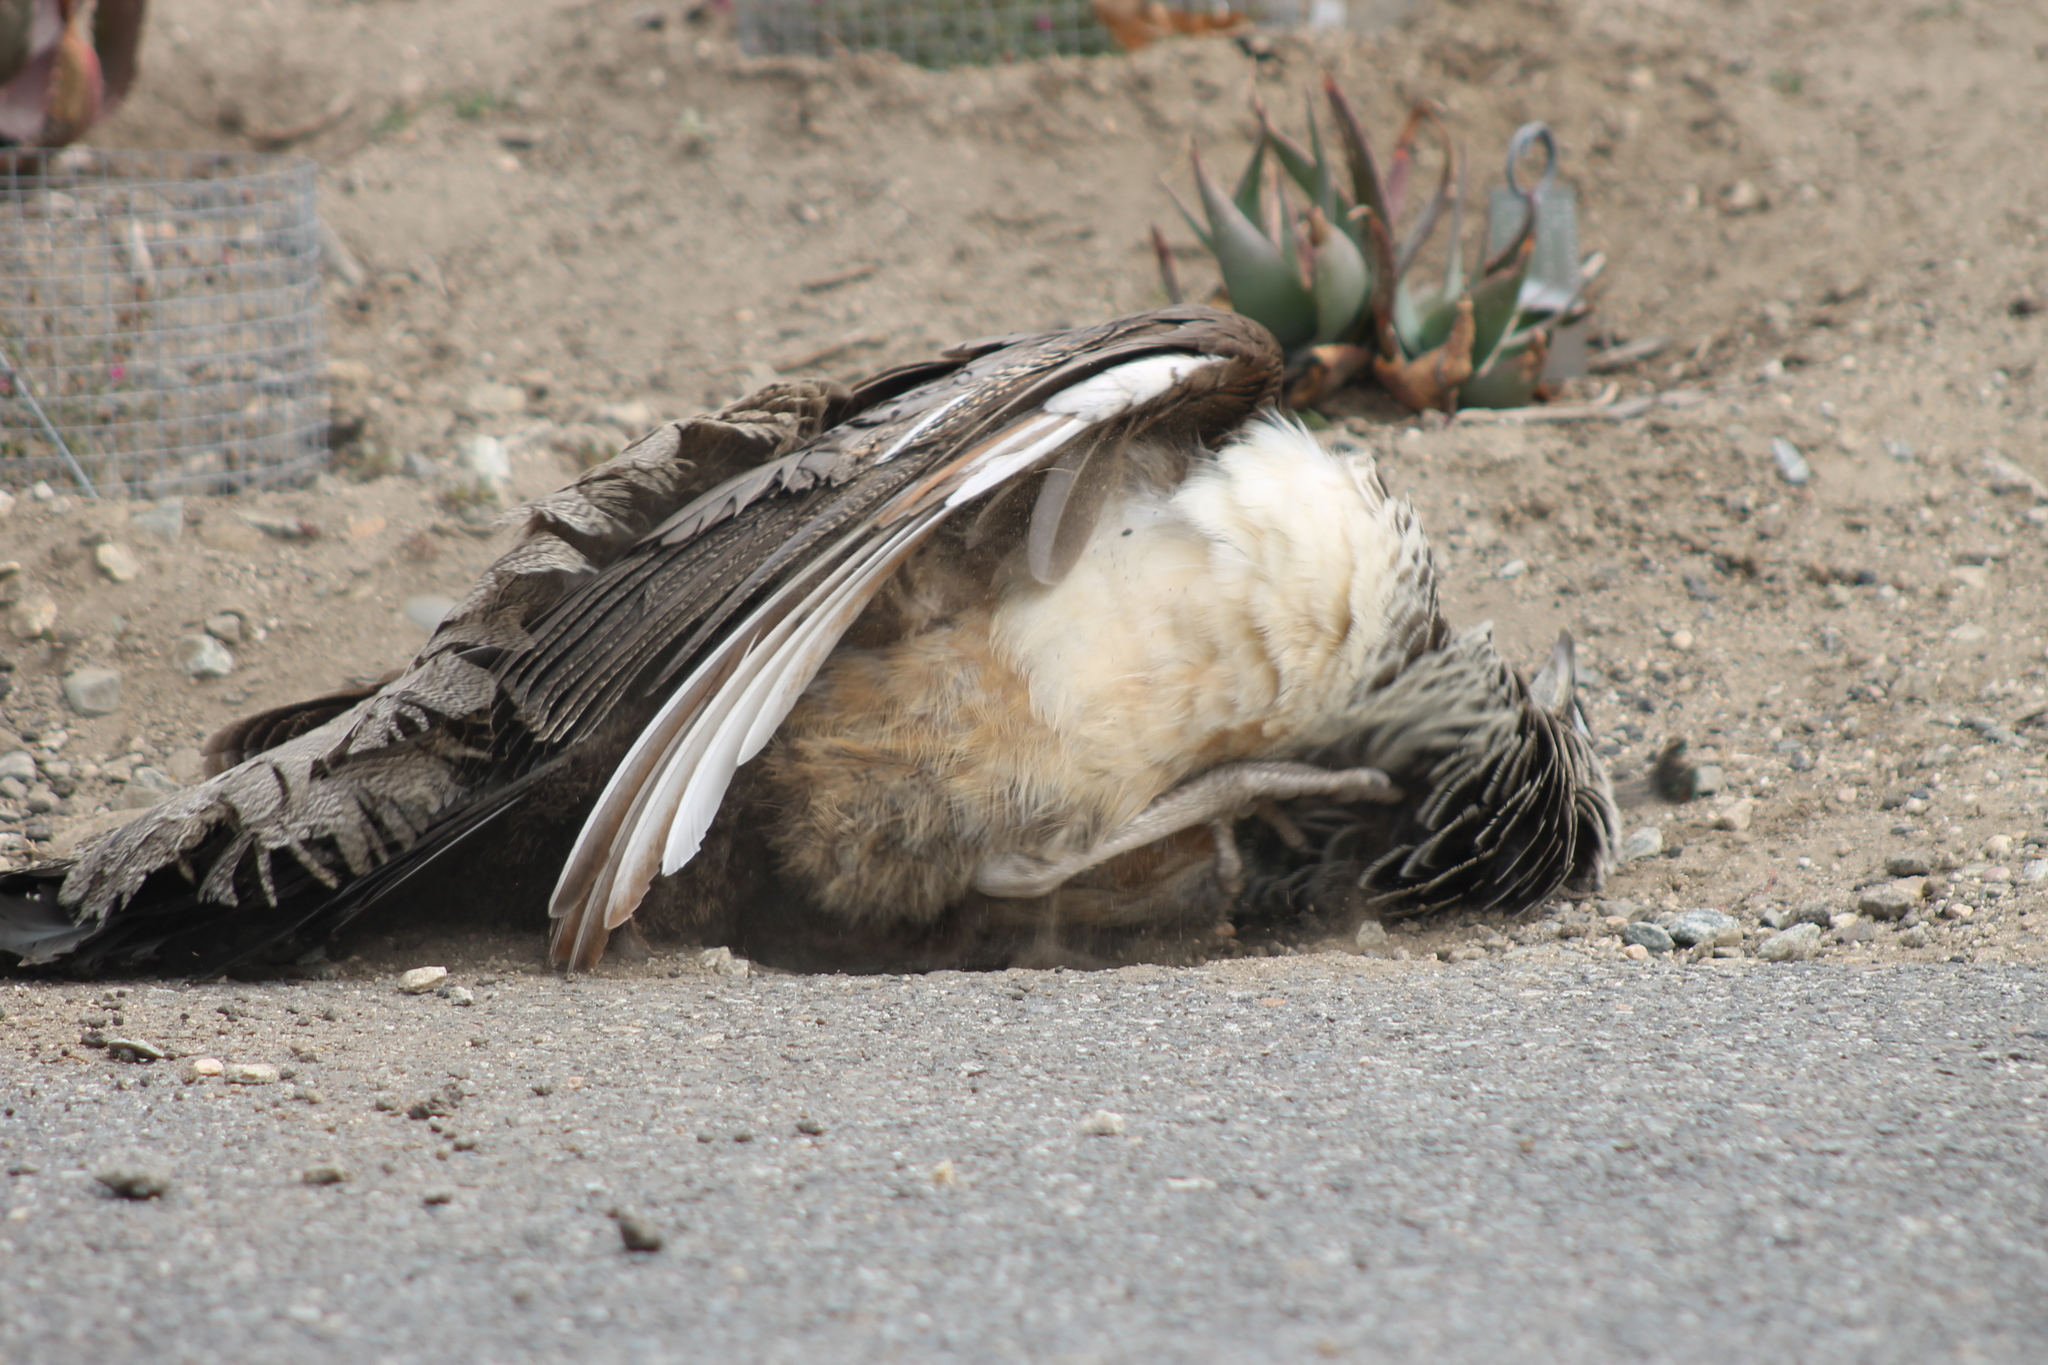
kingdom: Animalia
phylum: Chordata
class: Aves
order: Galliformes
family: Phasianidae
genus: Pavo
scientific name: Pavo cristatus
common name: Indian peafowl
